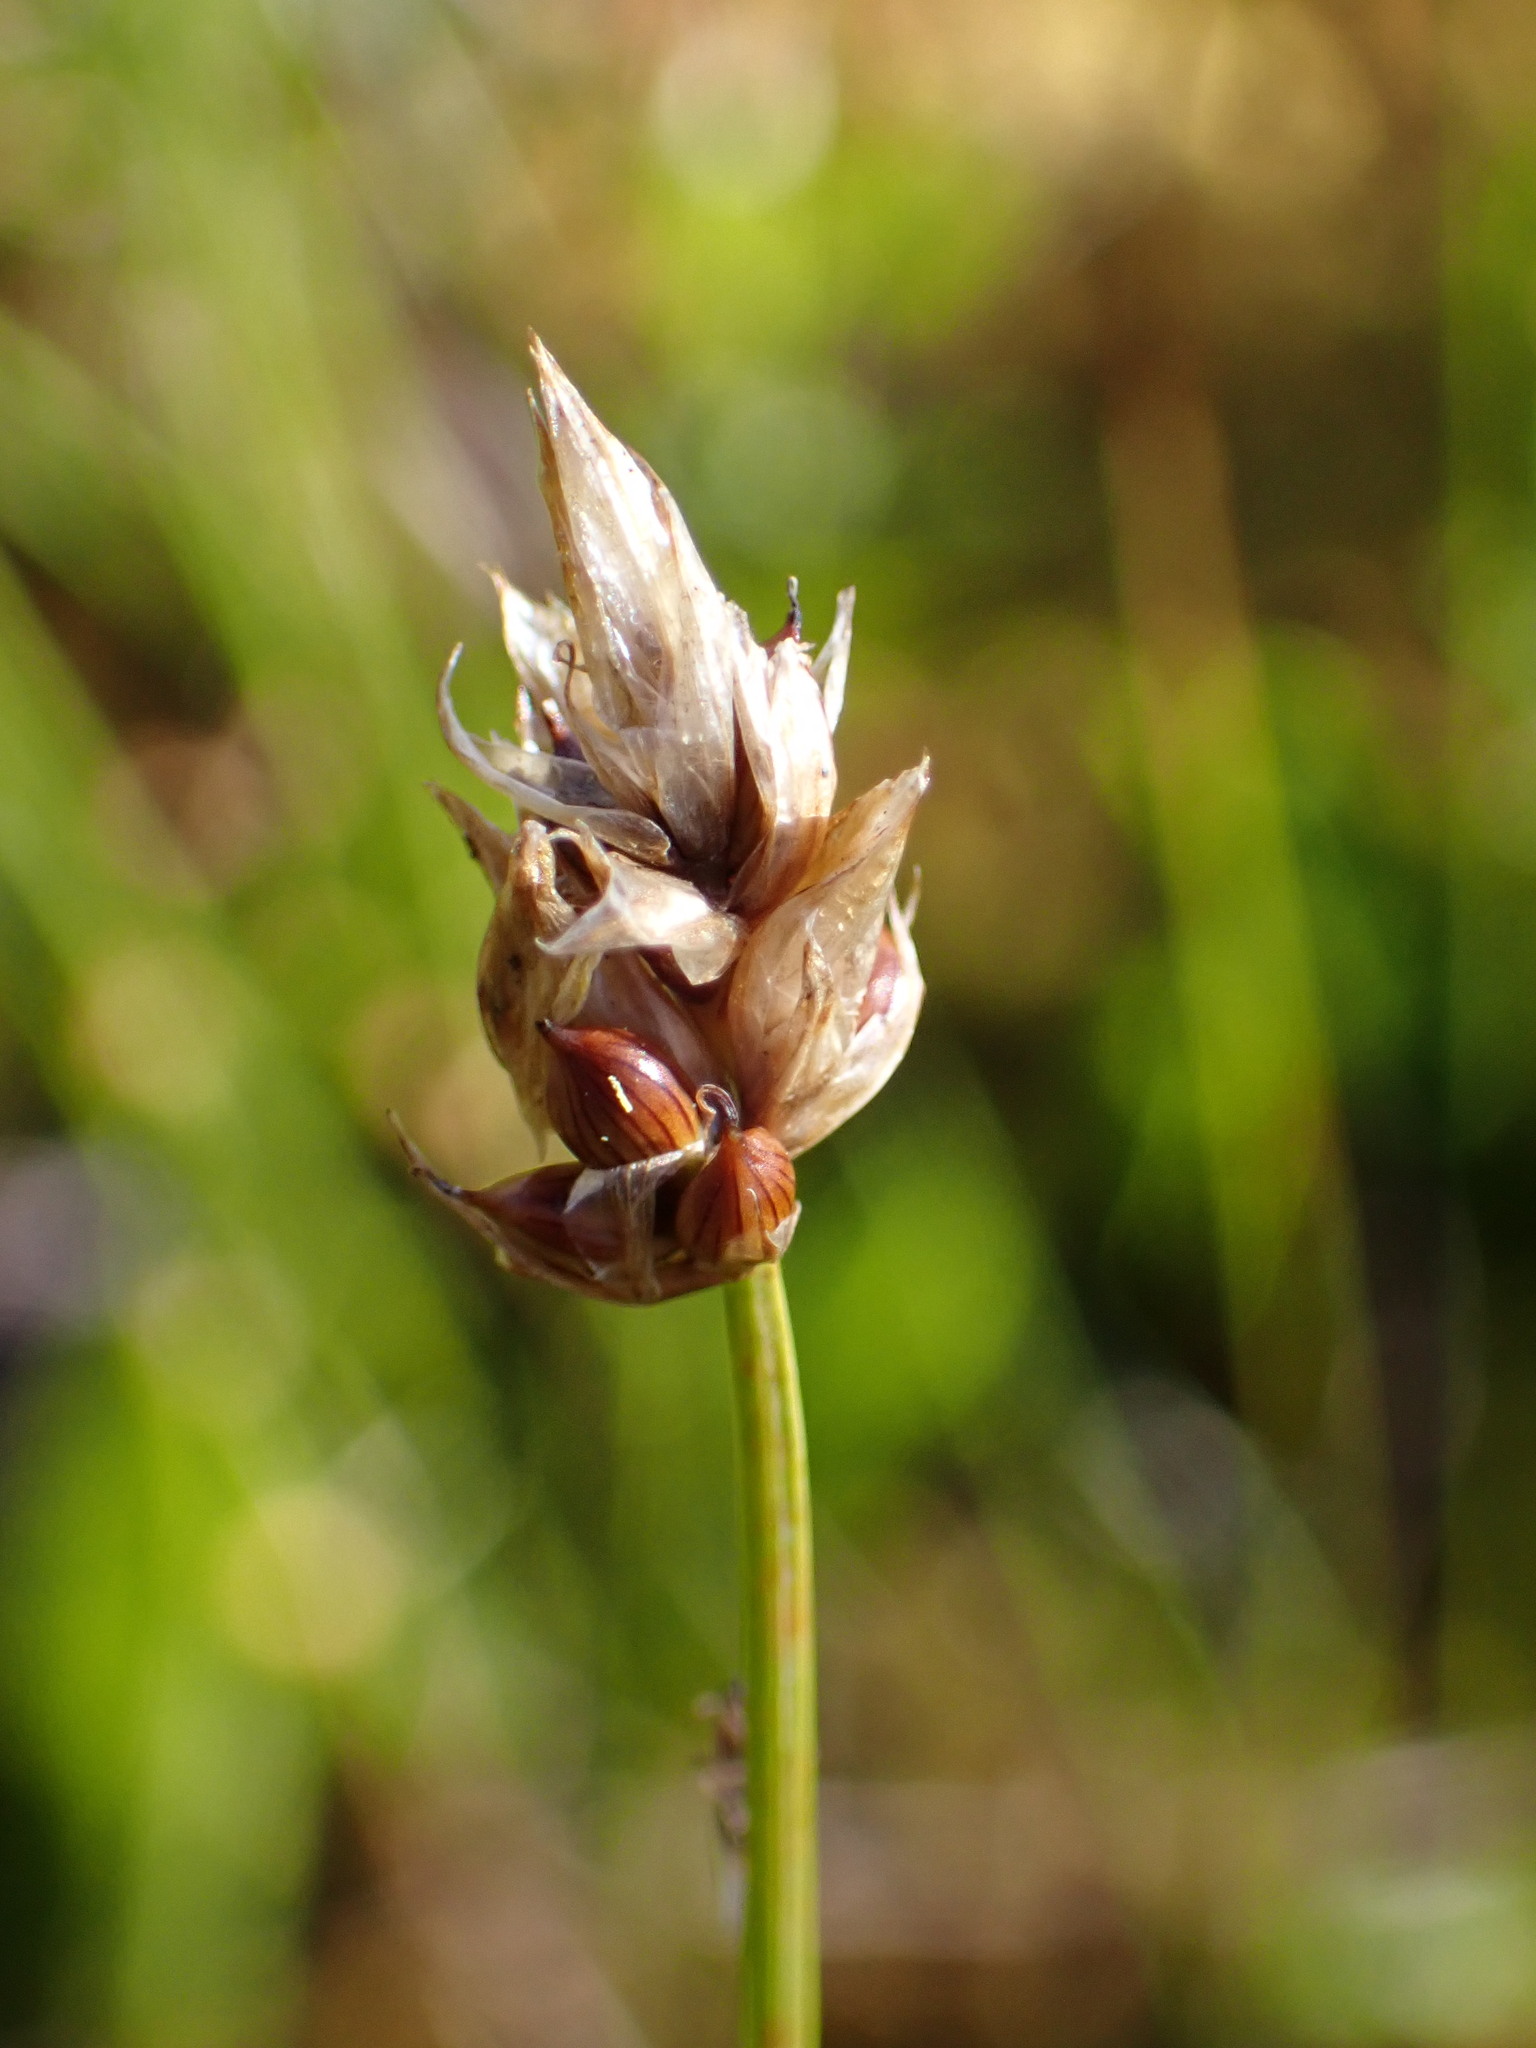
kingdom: Plantae
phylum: Tracheophyta
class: Liliopsida
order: Poales
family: Cyperaceae
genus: Carex
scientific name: Carex chordorrhiza
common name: String sedge
